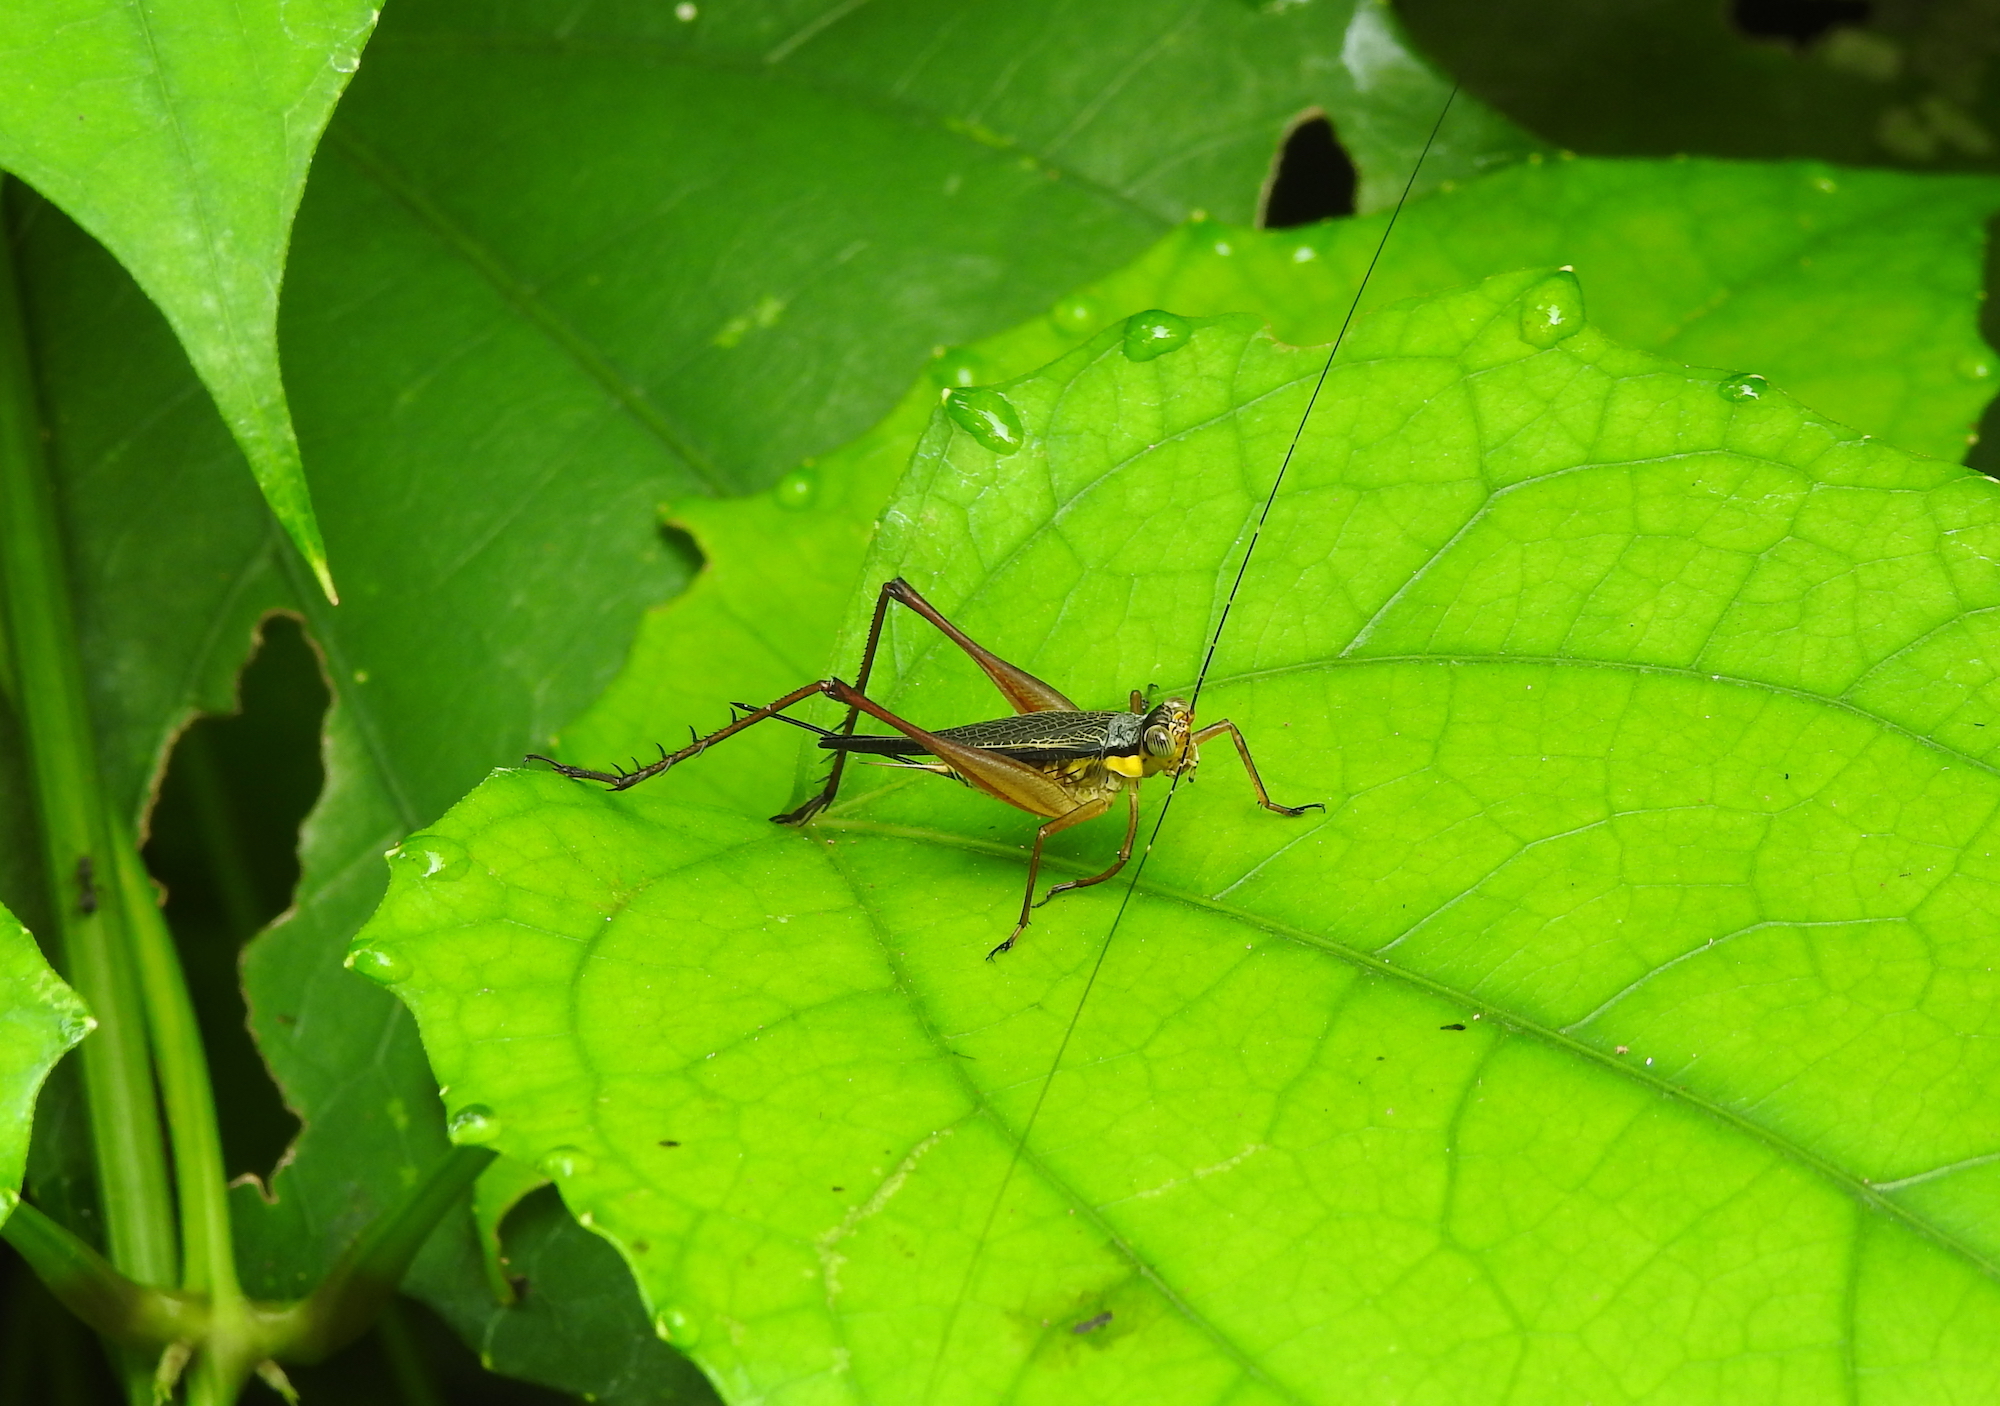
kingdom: Animalia
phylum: Arthropoda
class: Insecta
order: Orthoptera
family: Gryllidae
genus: Nisitrus
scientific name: Nisitrus malaya
